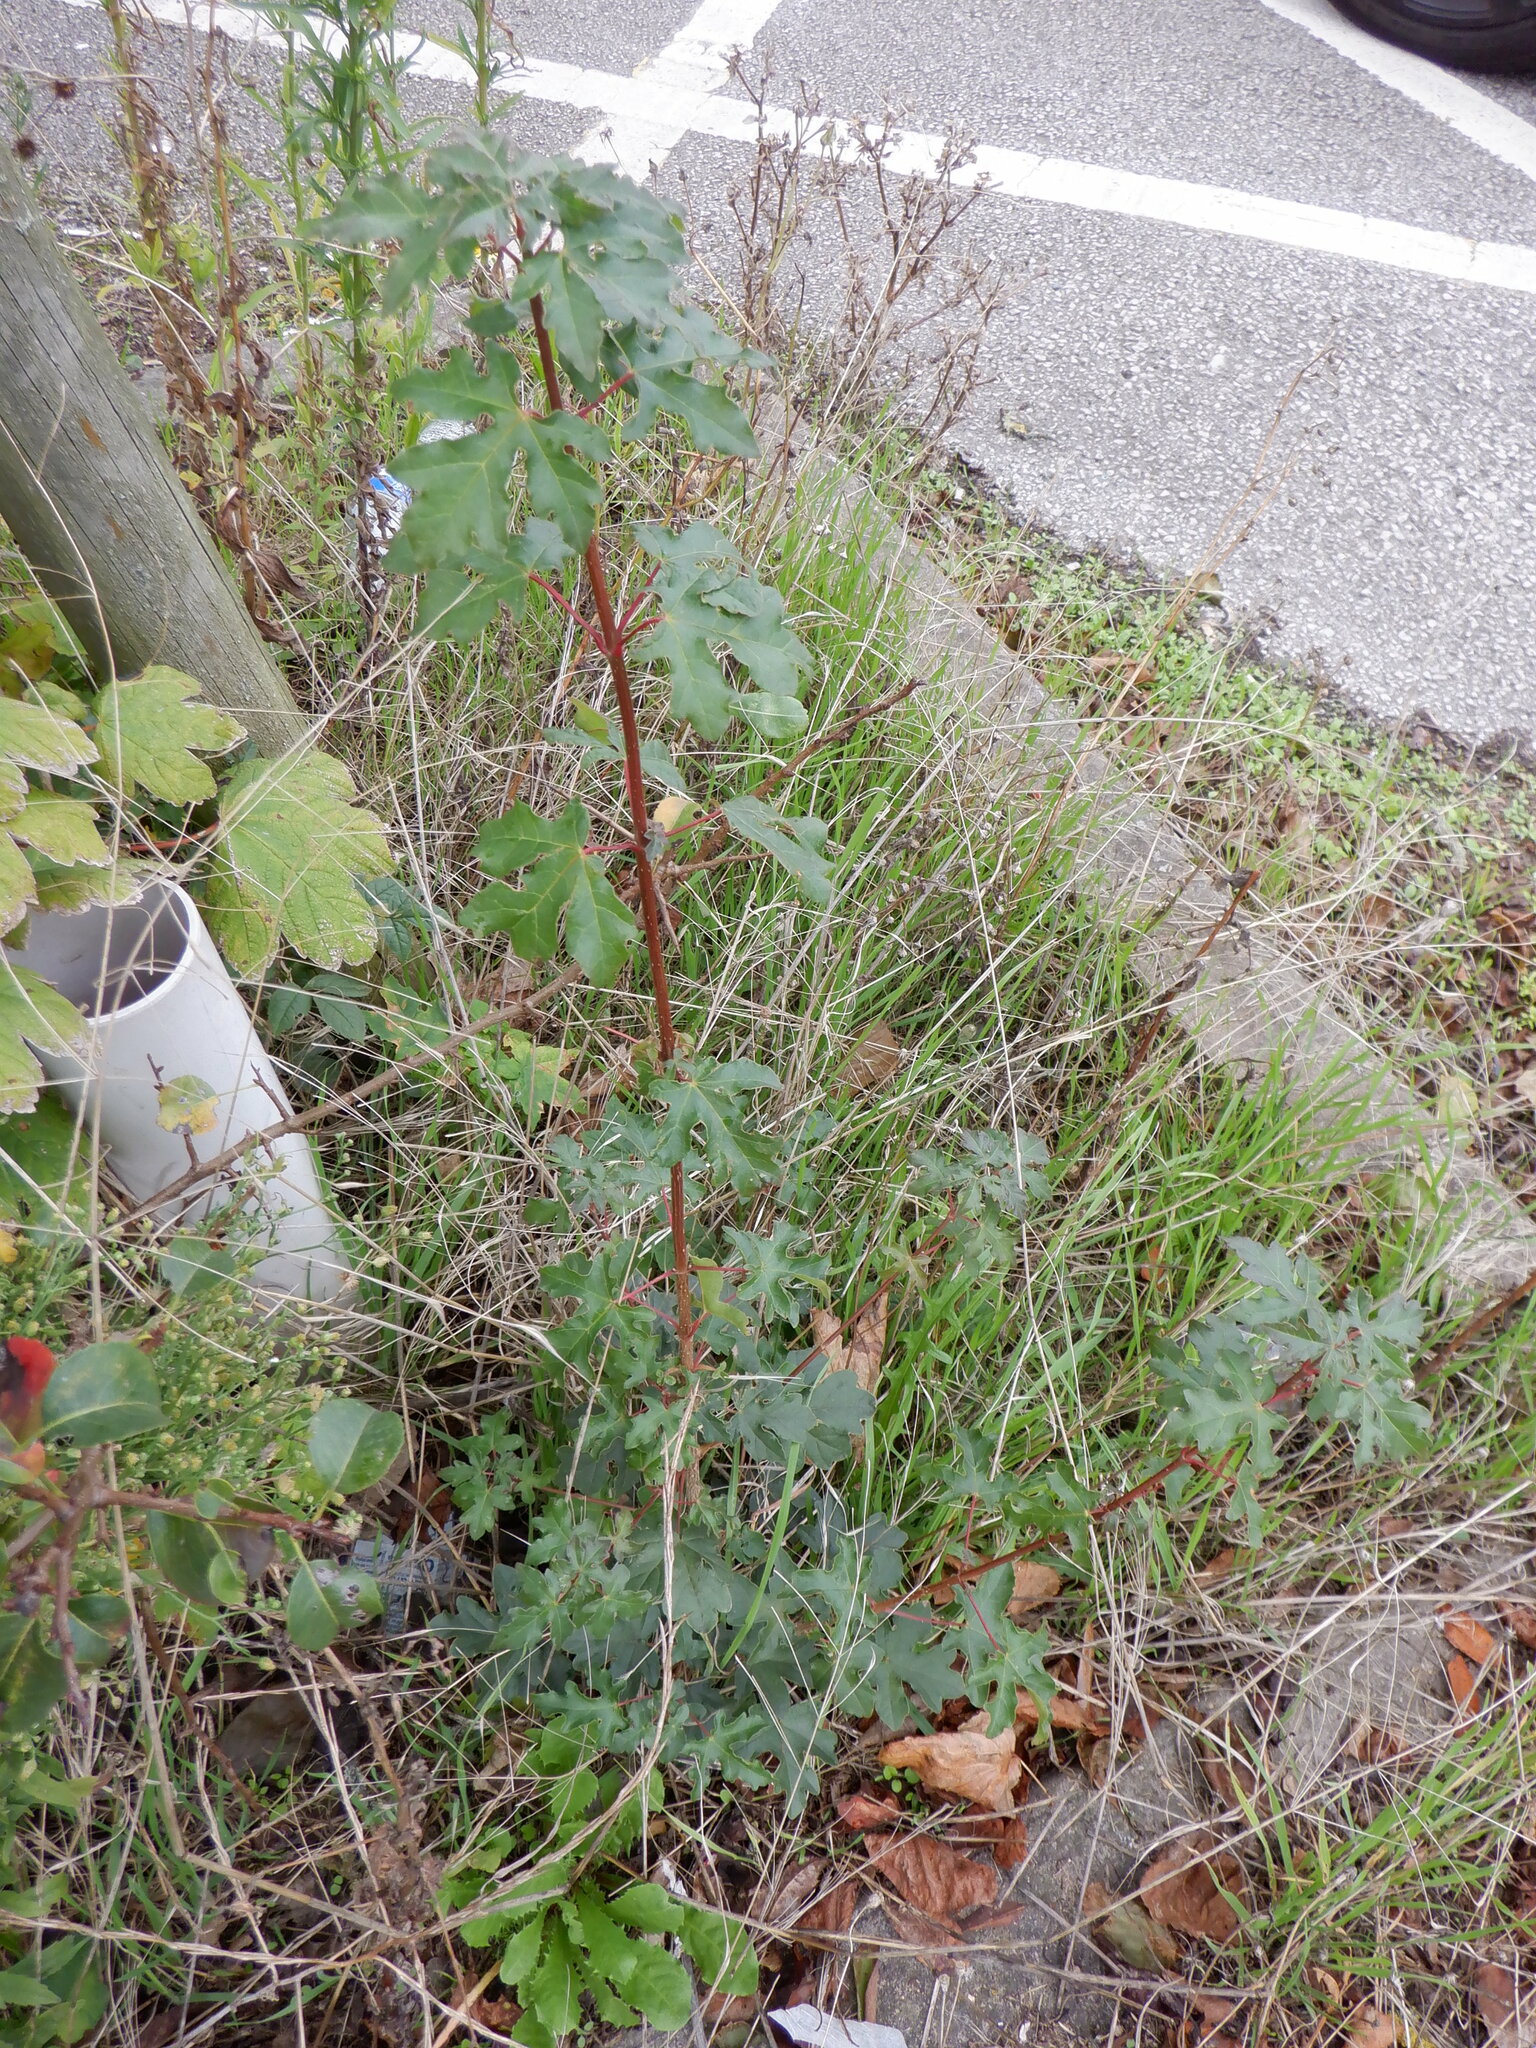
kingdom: Plantae
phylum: Tracheophyta
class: Magnoliopsida
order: Sapindales
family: Sapindaceae
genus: Acer
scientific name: Acer campestre
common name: Field maple
